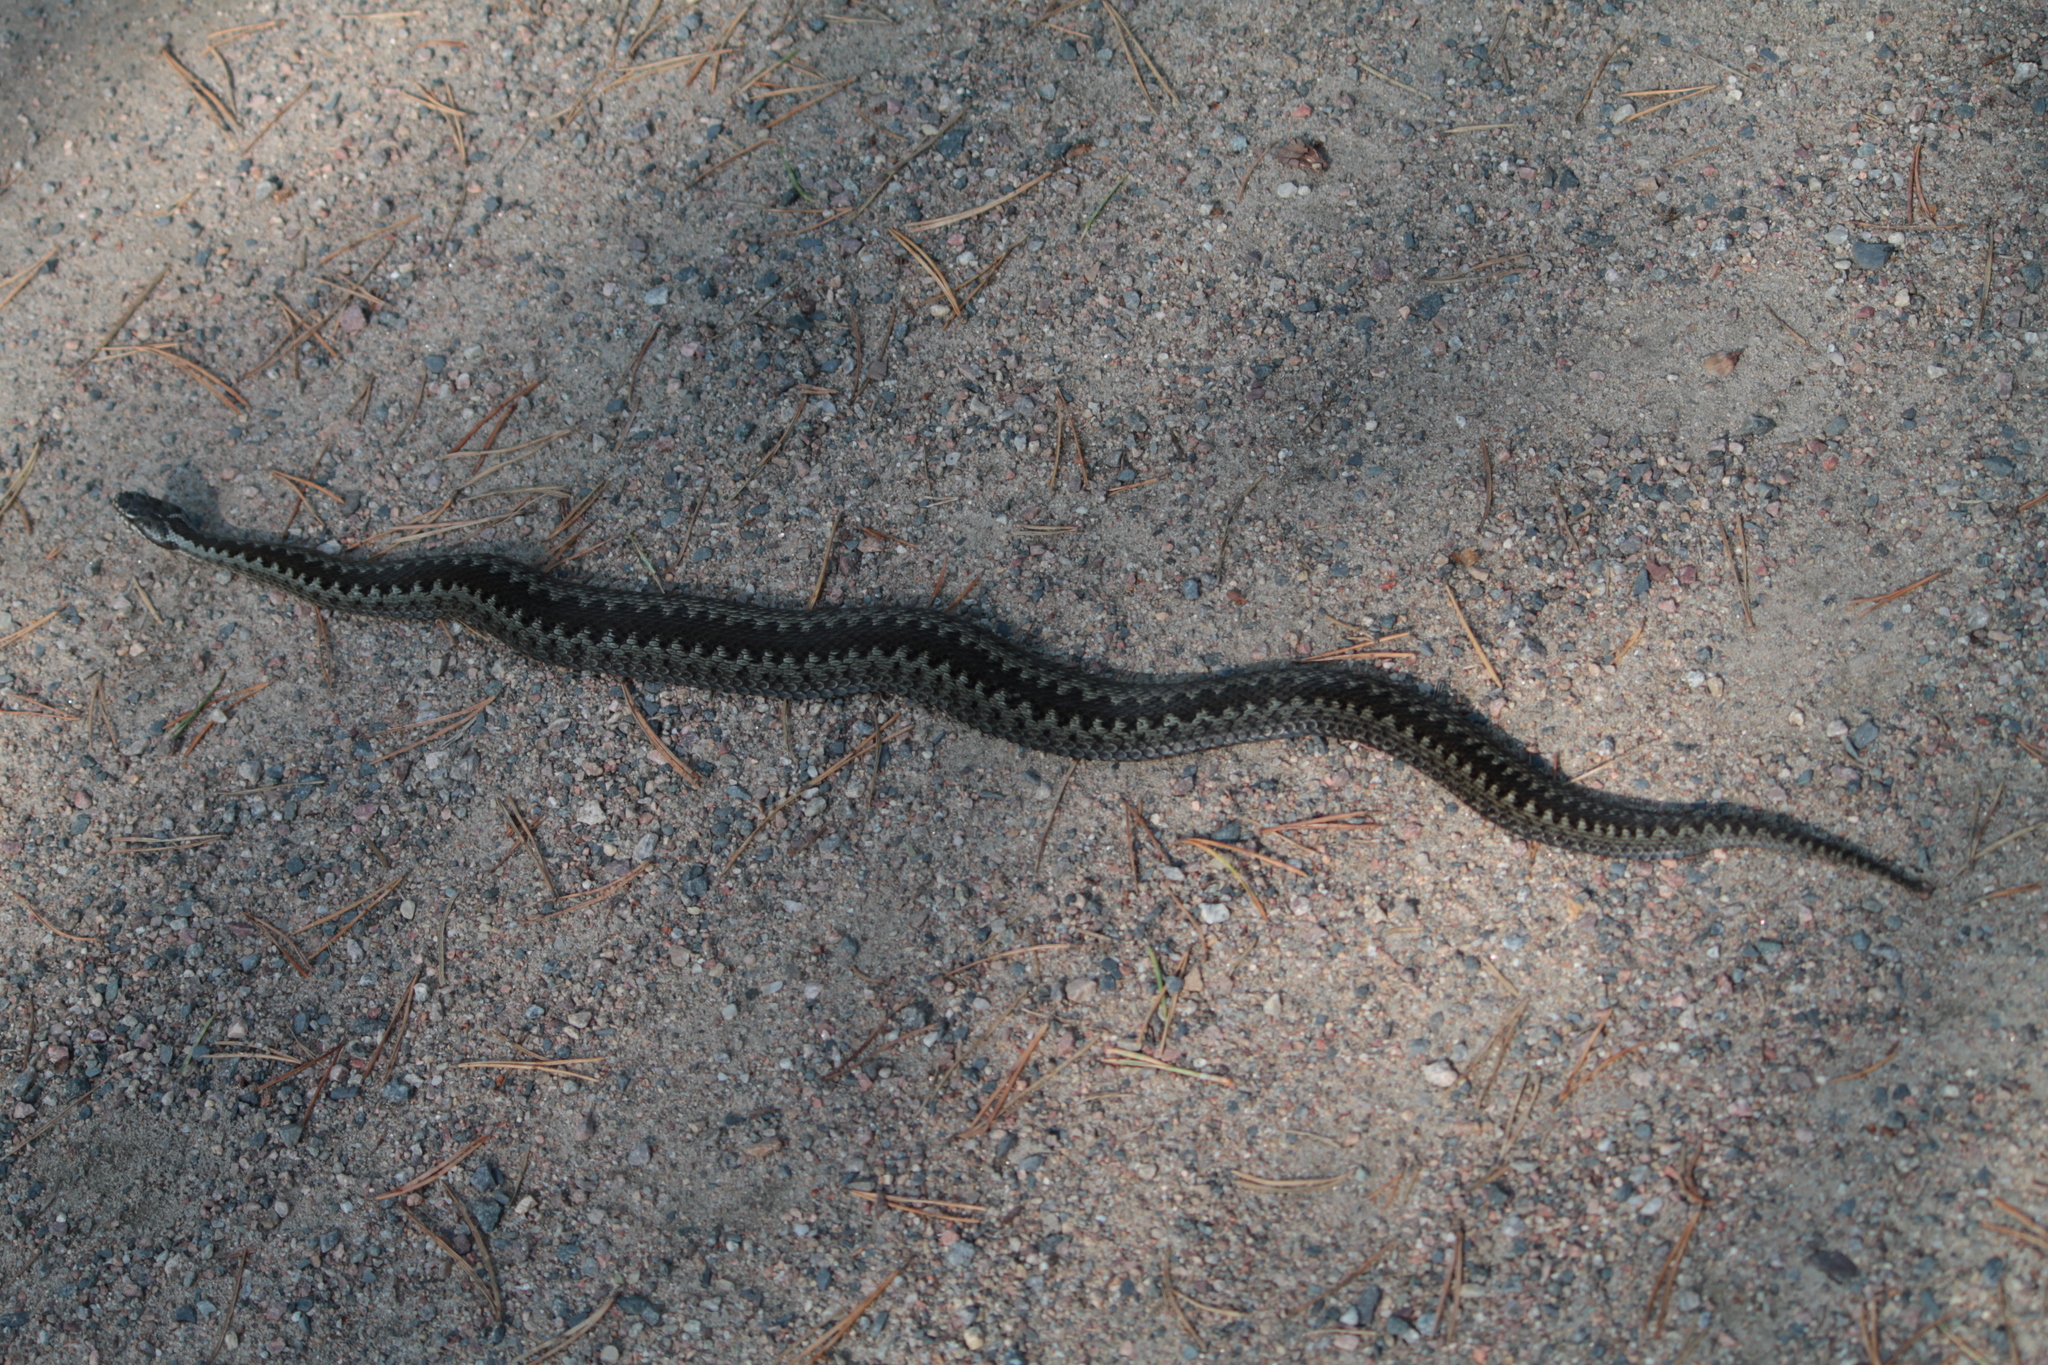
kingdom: Animalia
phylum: Chordata
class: Squamata
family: Viperidae
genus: Vipera
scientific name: Vipera berus
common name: Adder
